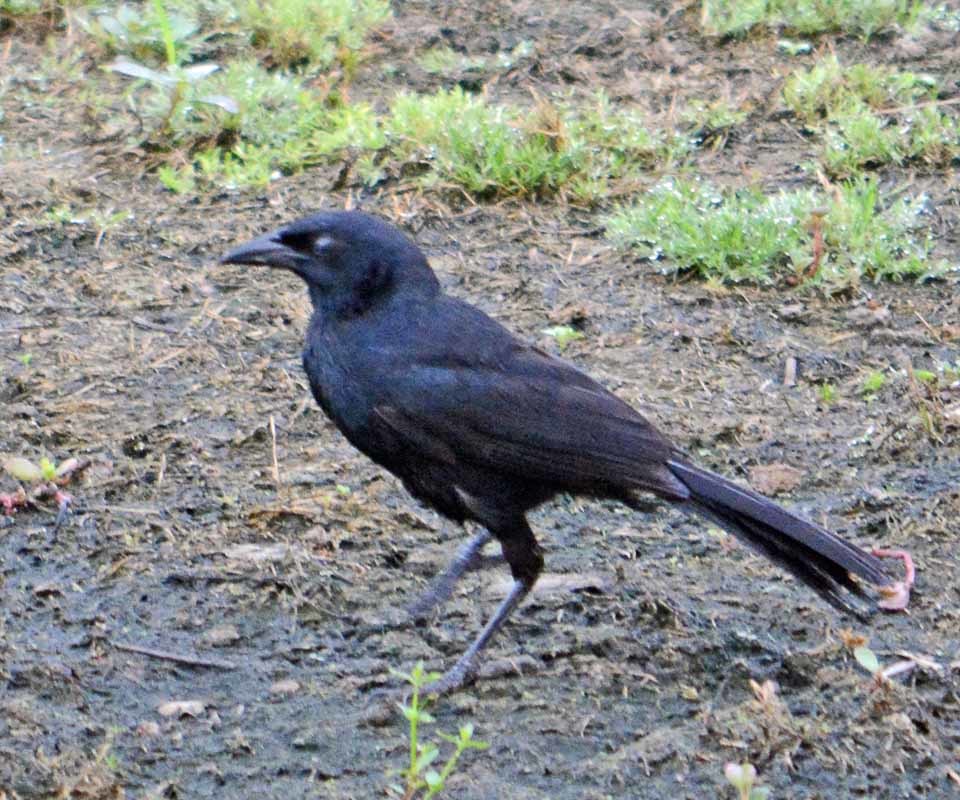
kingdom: Animalia
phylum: Chordata
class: Aves
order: Passeriformes
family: Icteridae
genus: Dives
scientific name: Dives dives
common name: Melodious blackbird
